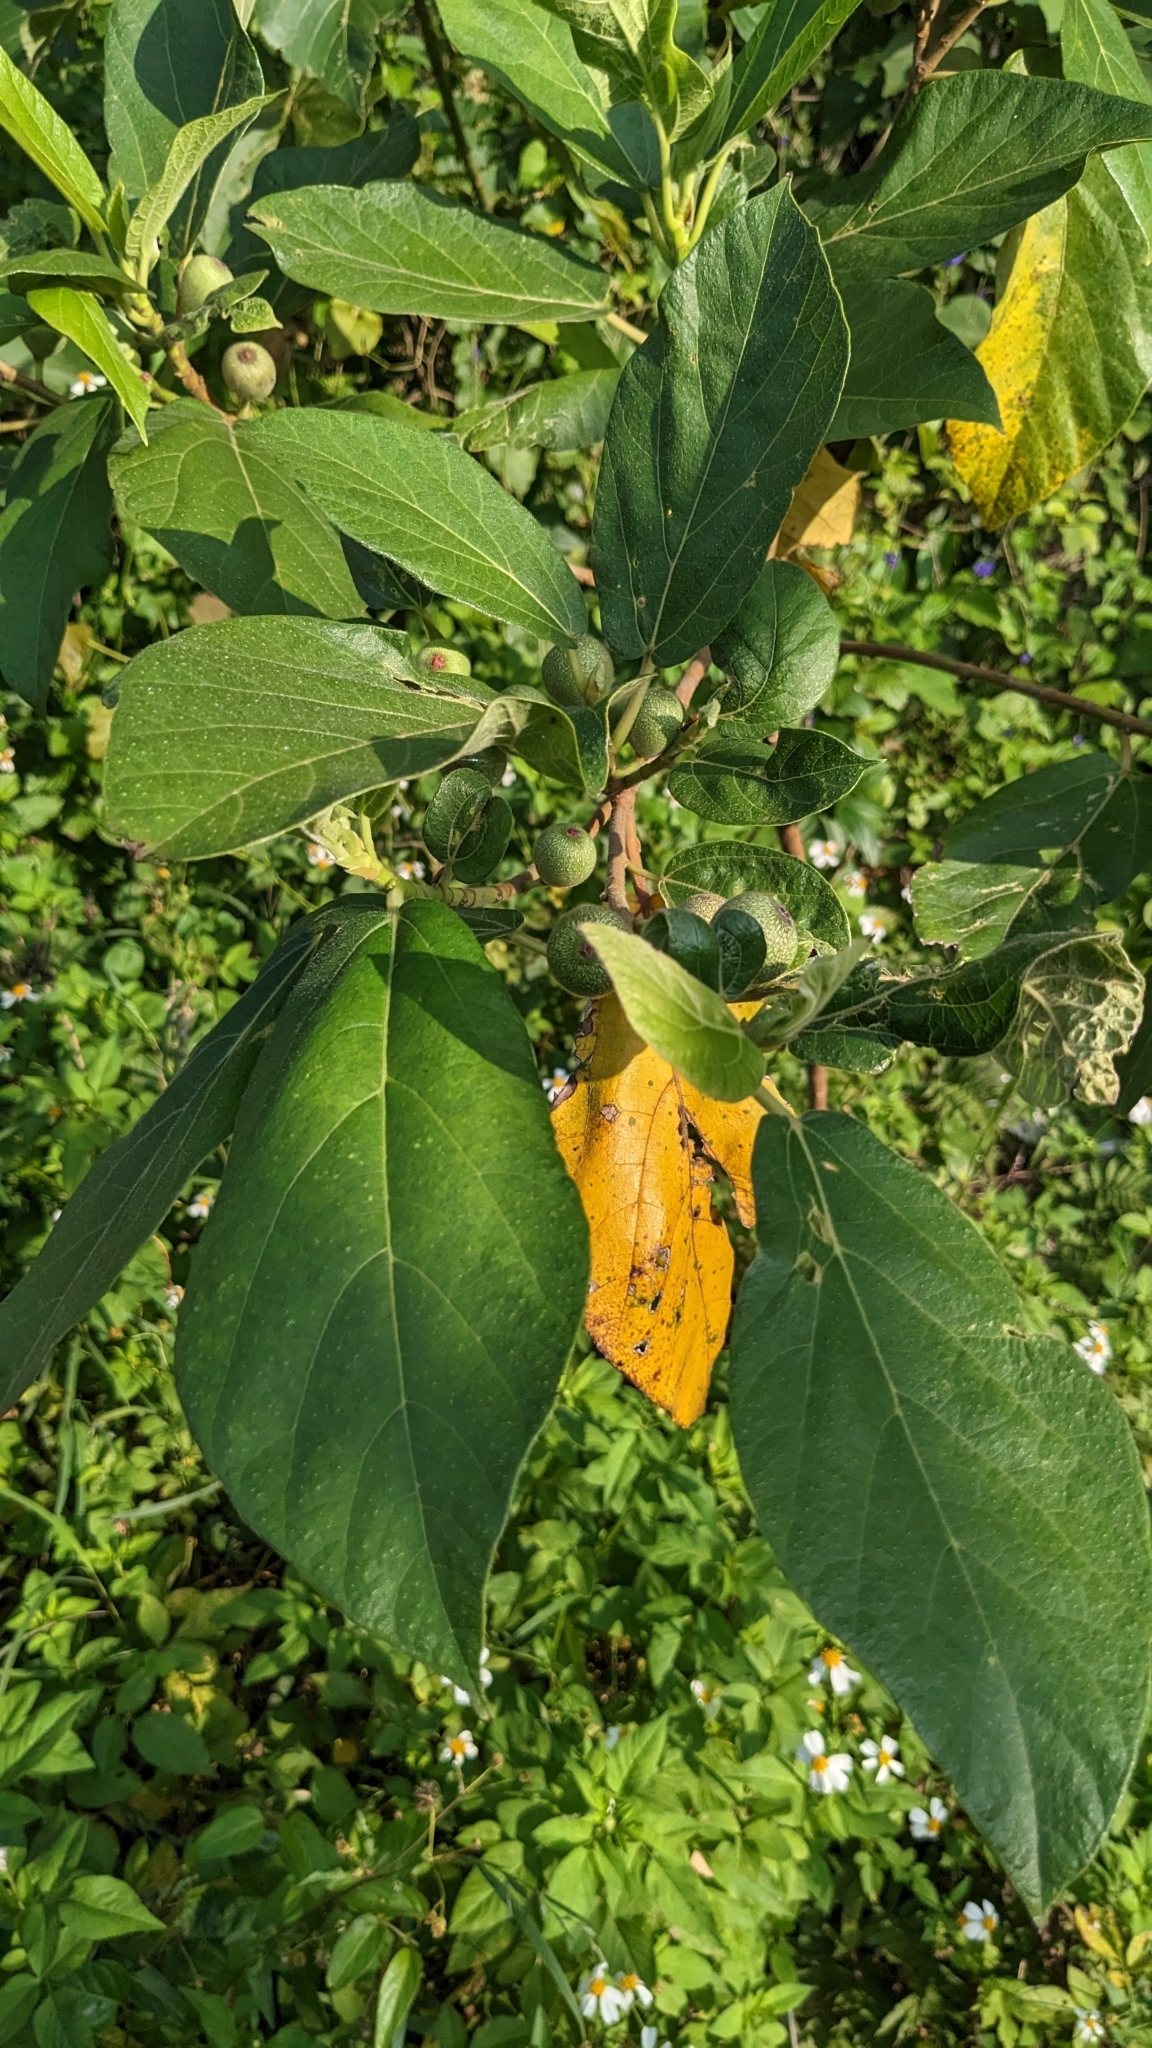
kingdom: Plantae
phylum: Tracheophyta
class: Magnoliopsida
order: Rosales
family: Moraceae
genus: Ficus
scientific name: Ficus erecta
